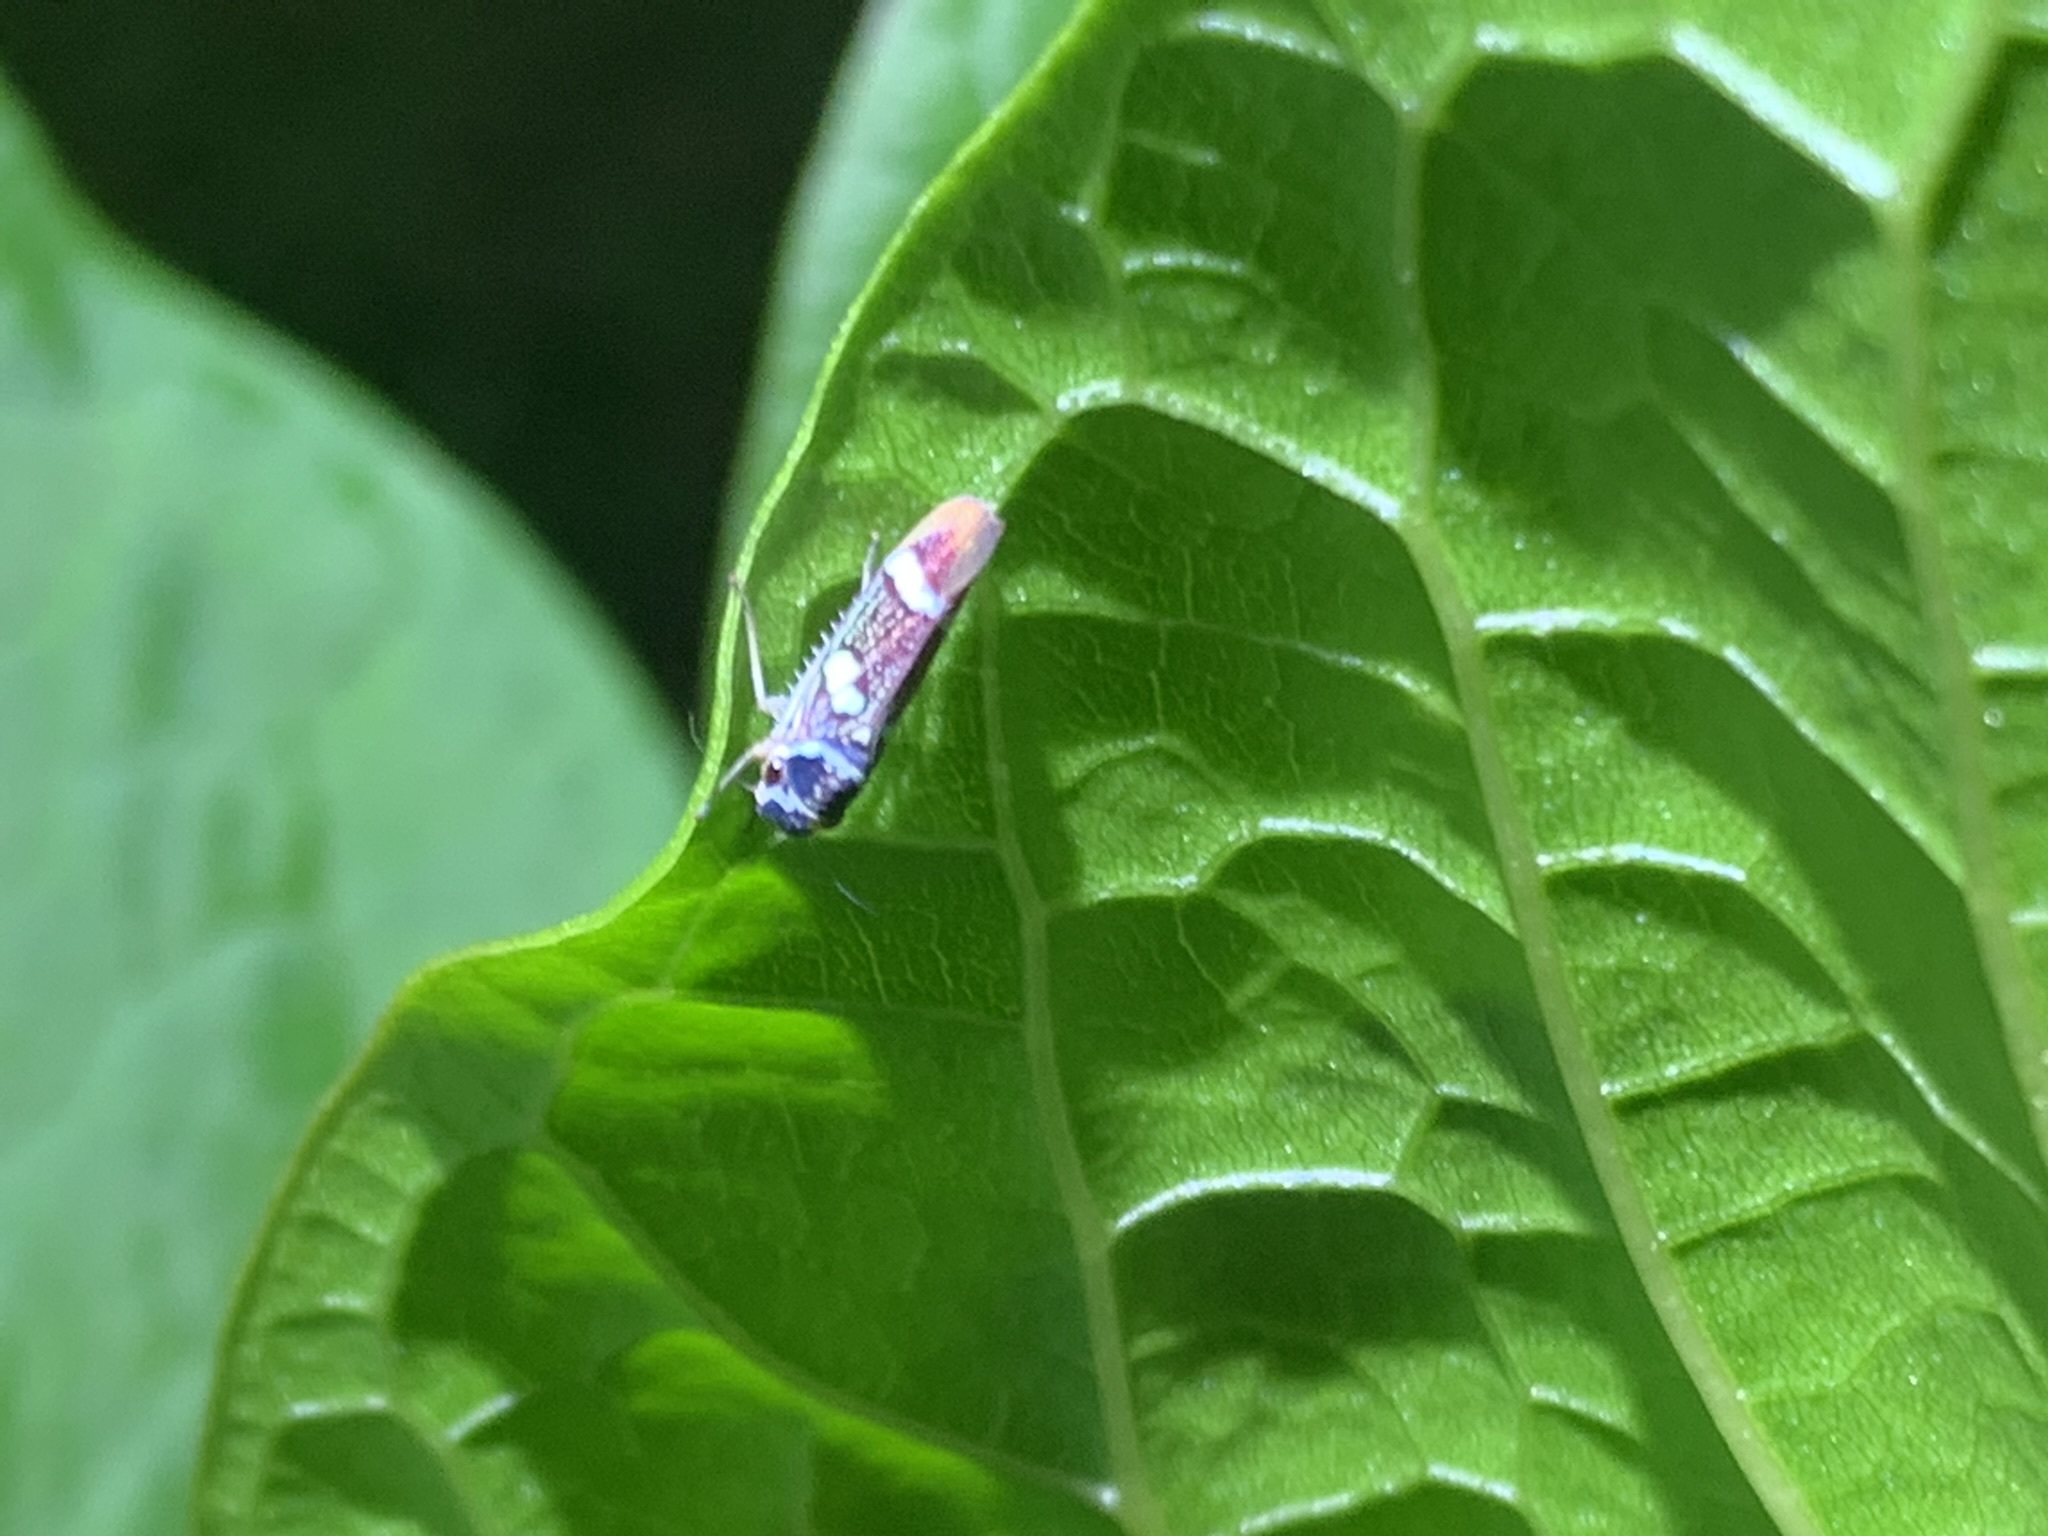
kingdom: Animalia
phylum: Arthropoda
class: Insecta
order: Hemiptera
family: Cicadellidae
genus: Macugonalia
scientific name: Macugonalia leucomelas
